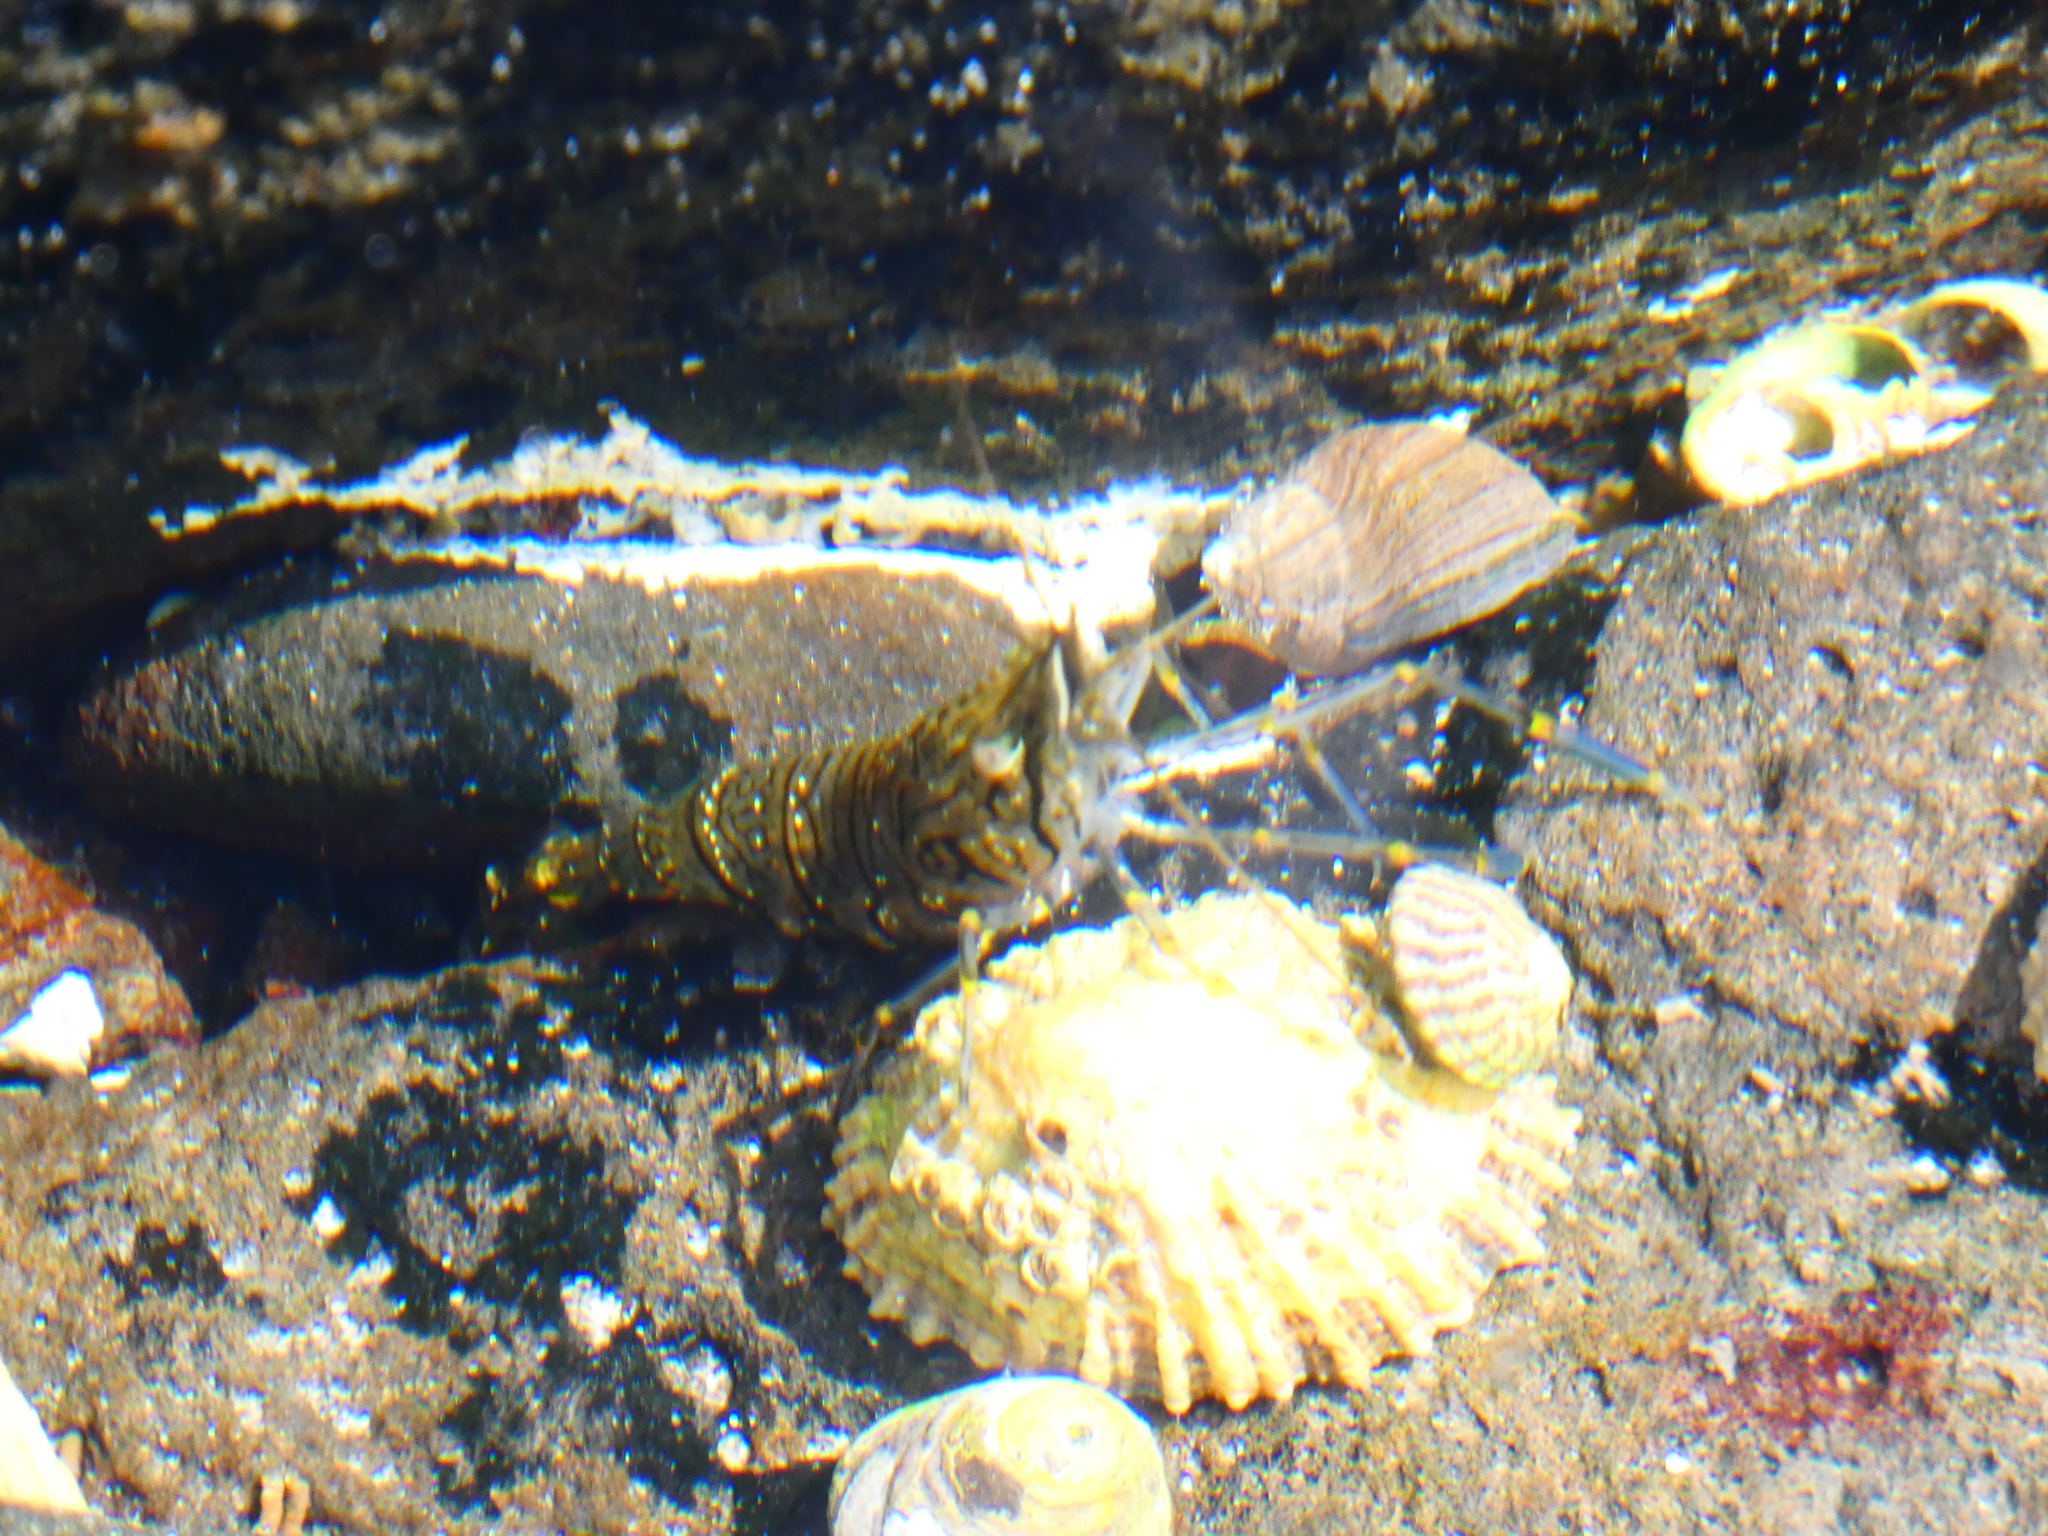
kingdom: Animalia
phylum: Arthropoda
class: Malacostraca
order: Decapoda
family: Palaemonidae
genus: Palaemon
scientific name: Palaemon elegans
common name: Grass prawm
